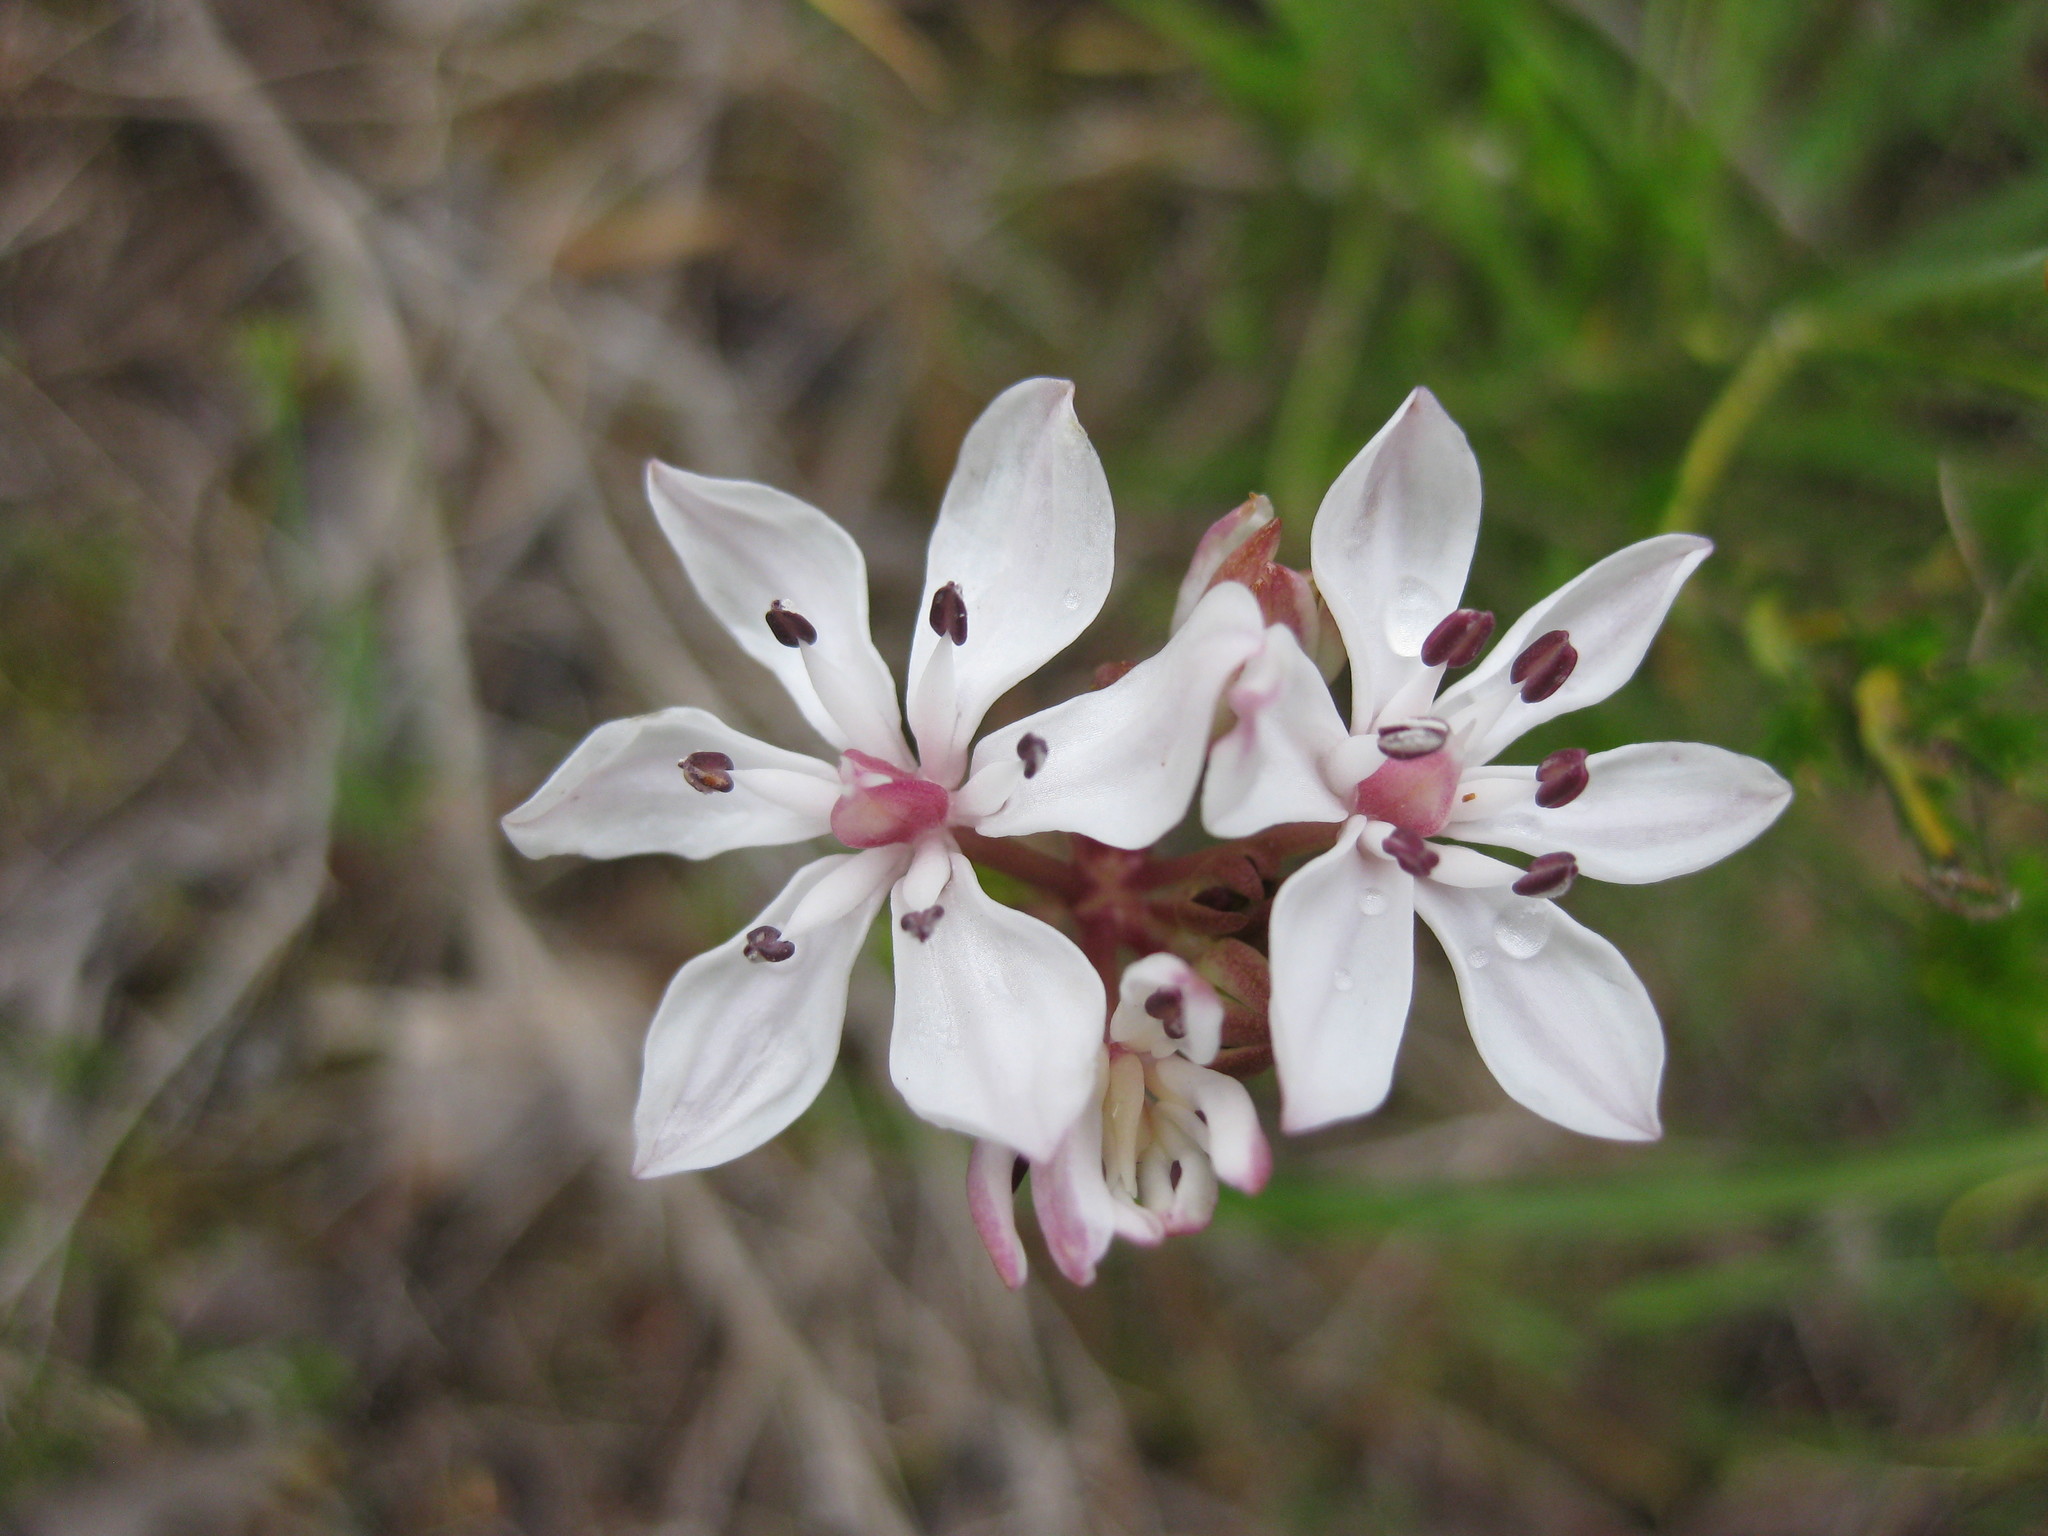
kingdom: Plantae
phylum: Tracheophyta
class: Liliopsida
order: Liliales
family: Colchicaceae
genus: Burchardia
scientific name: Burchardia umbellata
